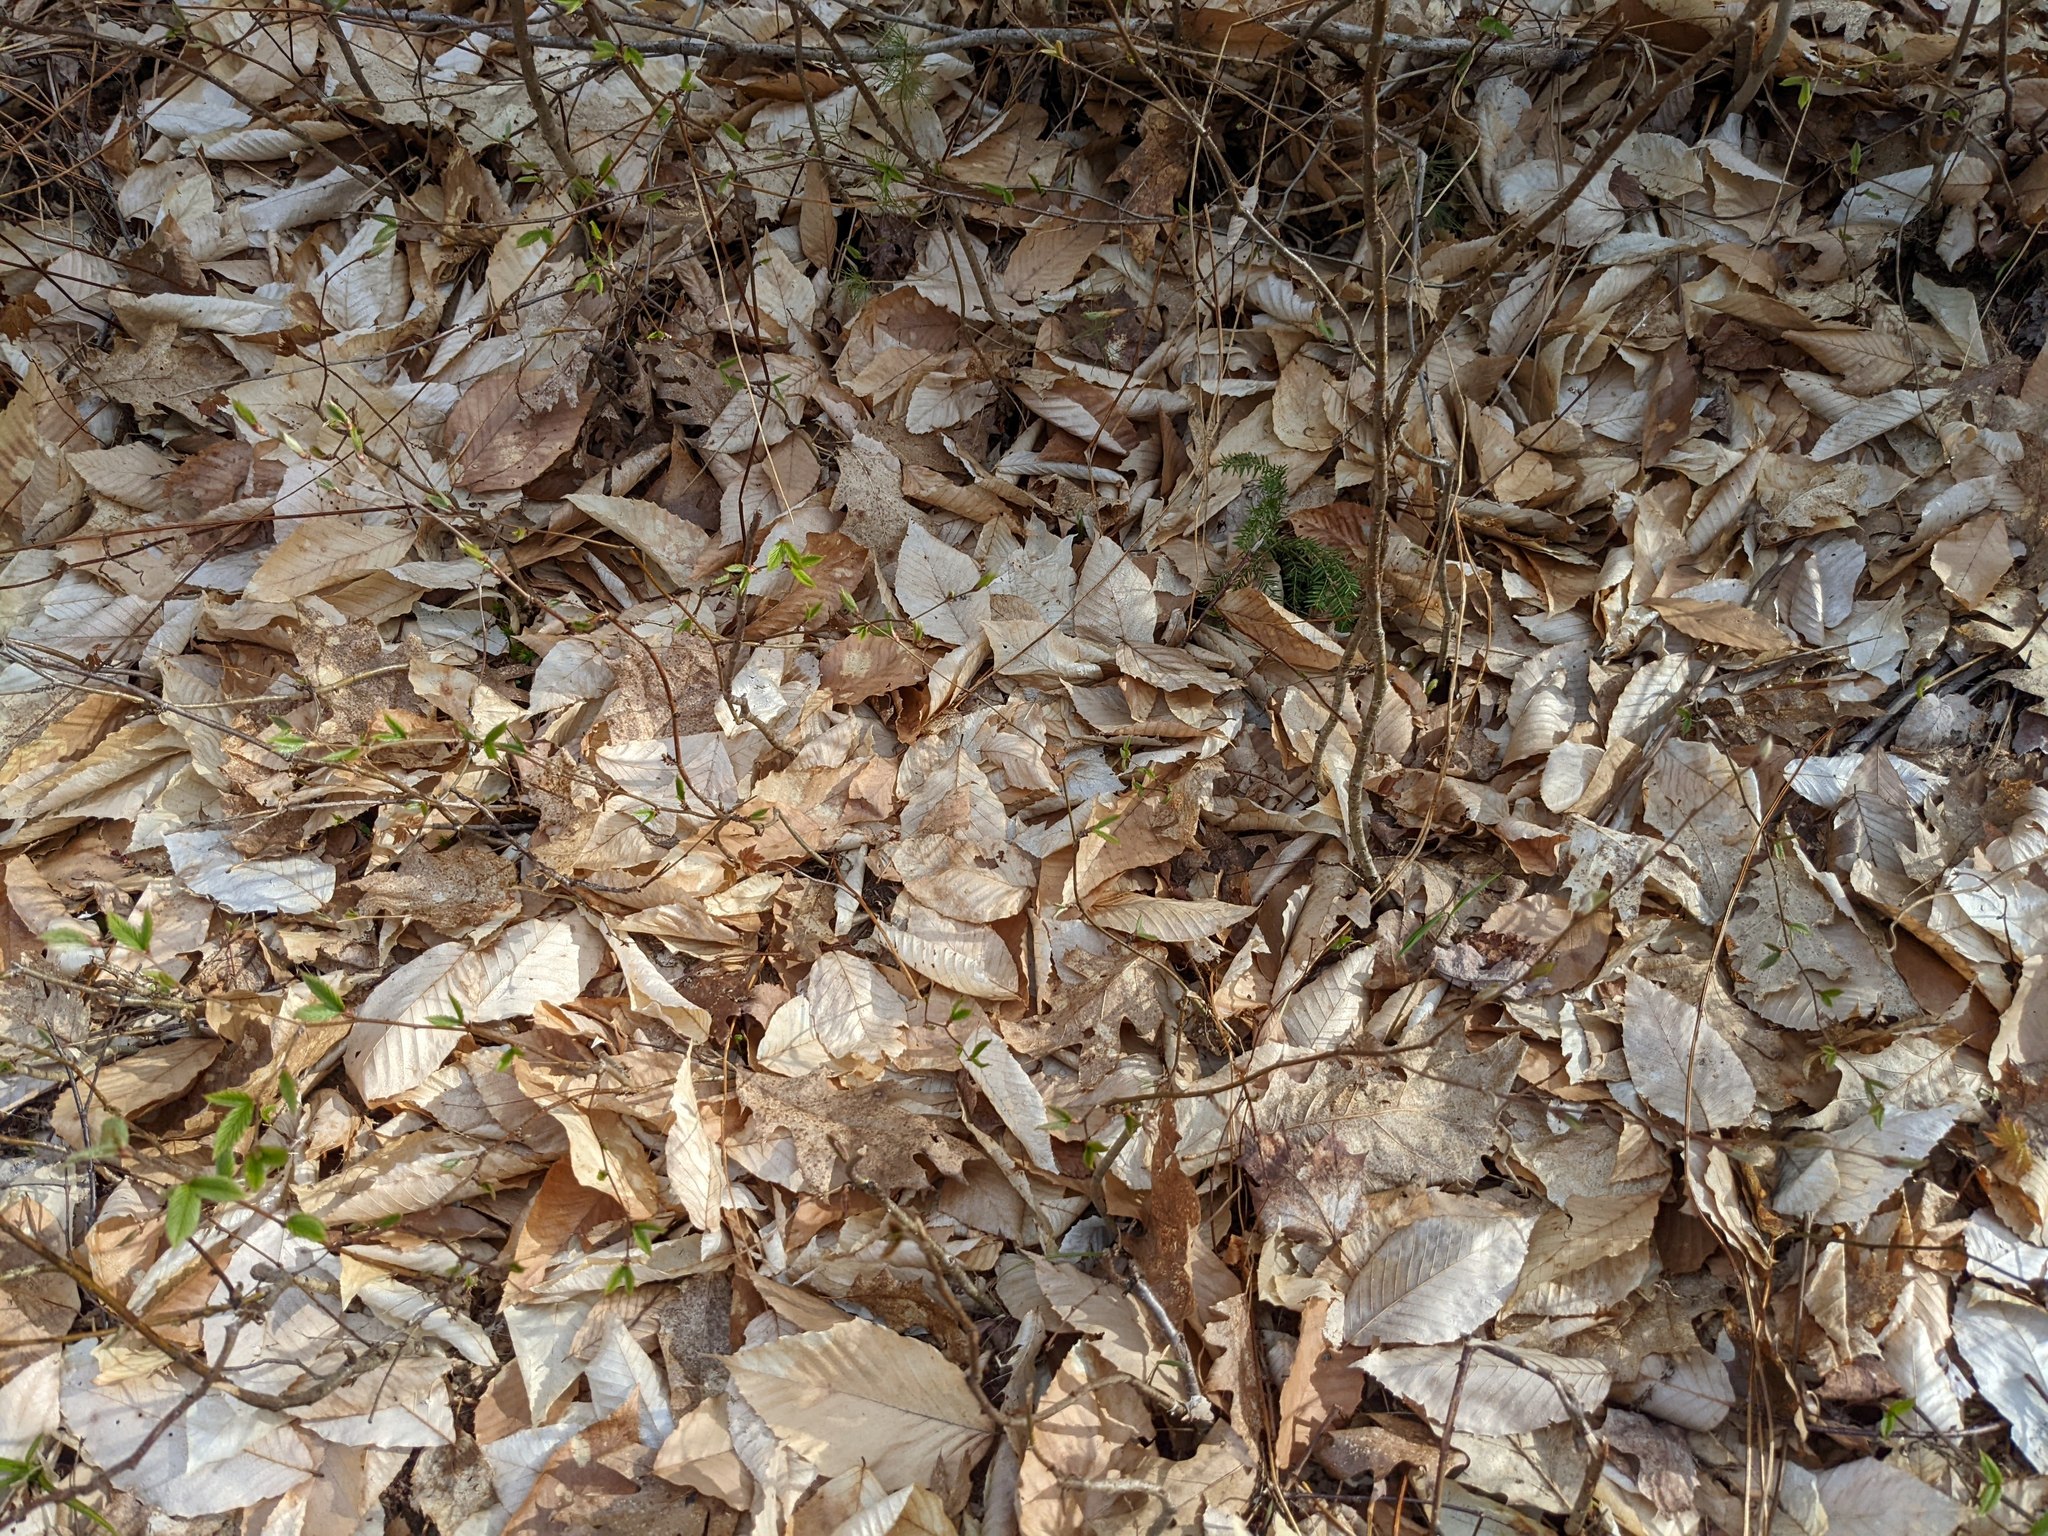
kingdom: Plantae
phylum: Tracheophyta
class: Magnoliopsida
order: Fagales
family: Fagaceae
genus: Fagus
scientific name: Fagus grandifolia
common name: American beech
